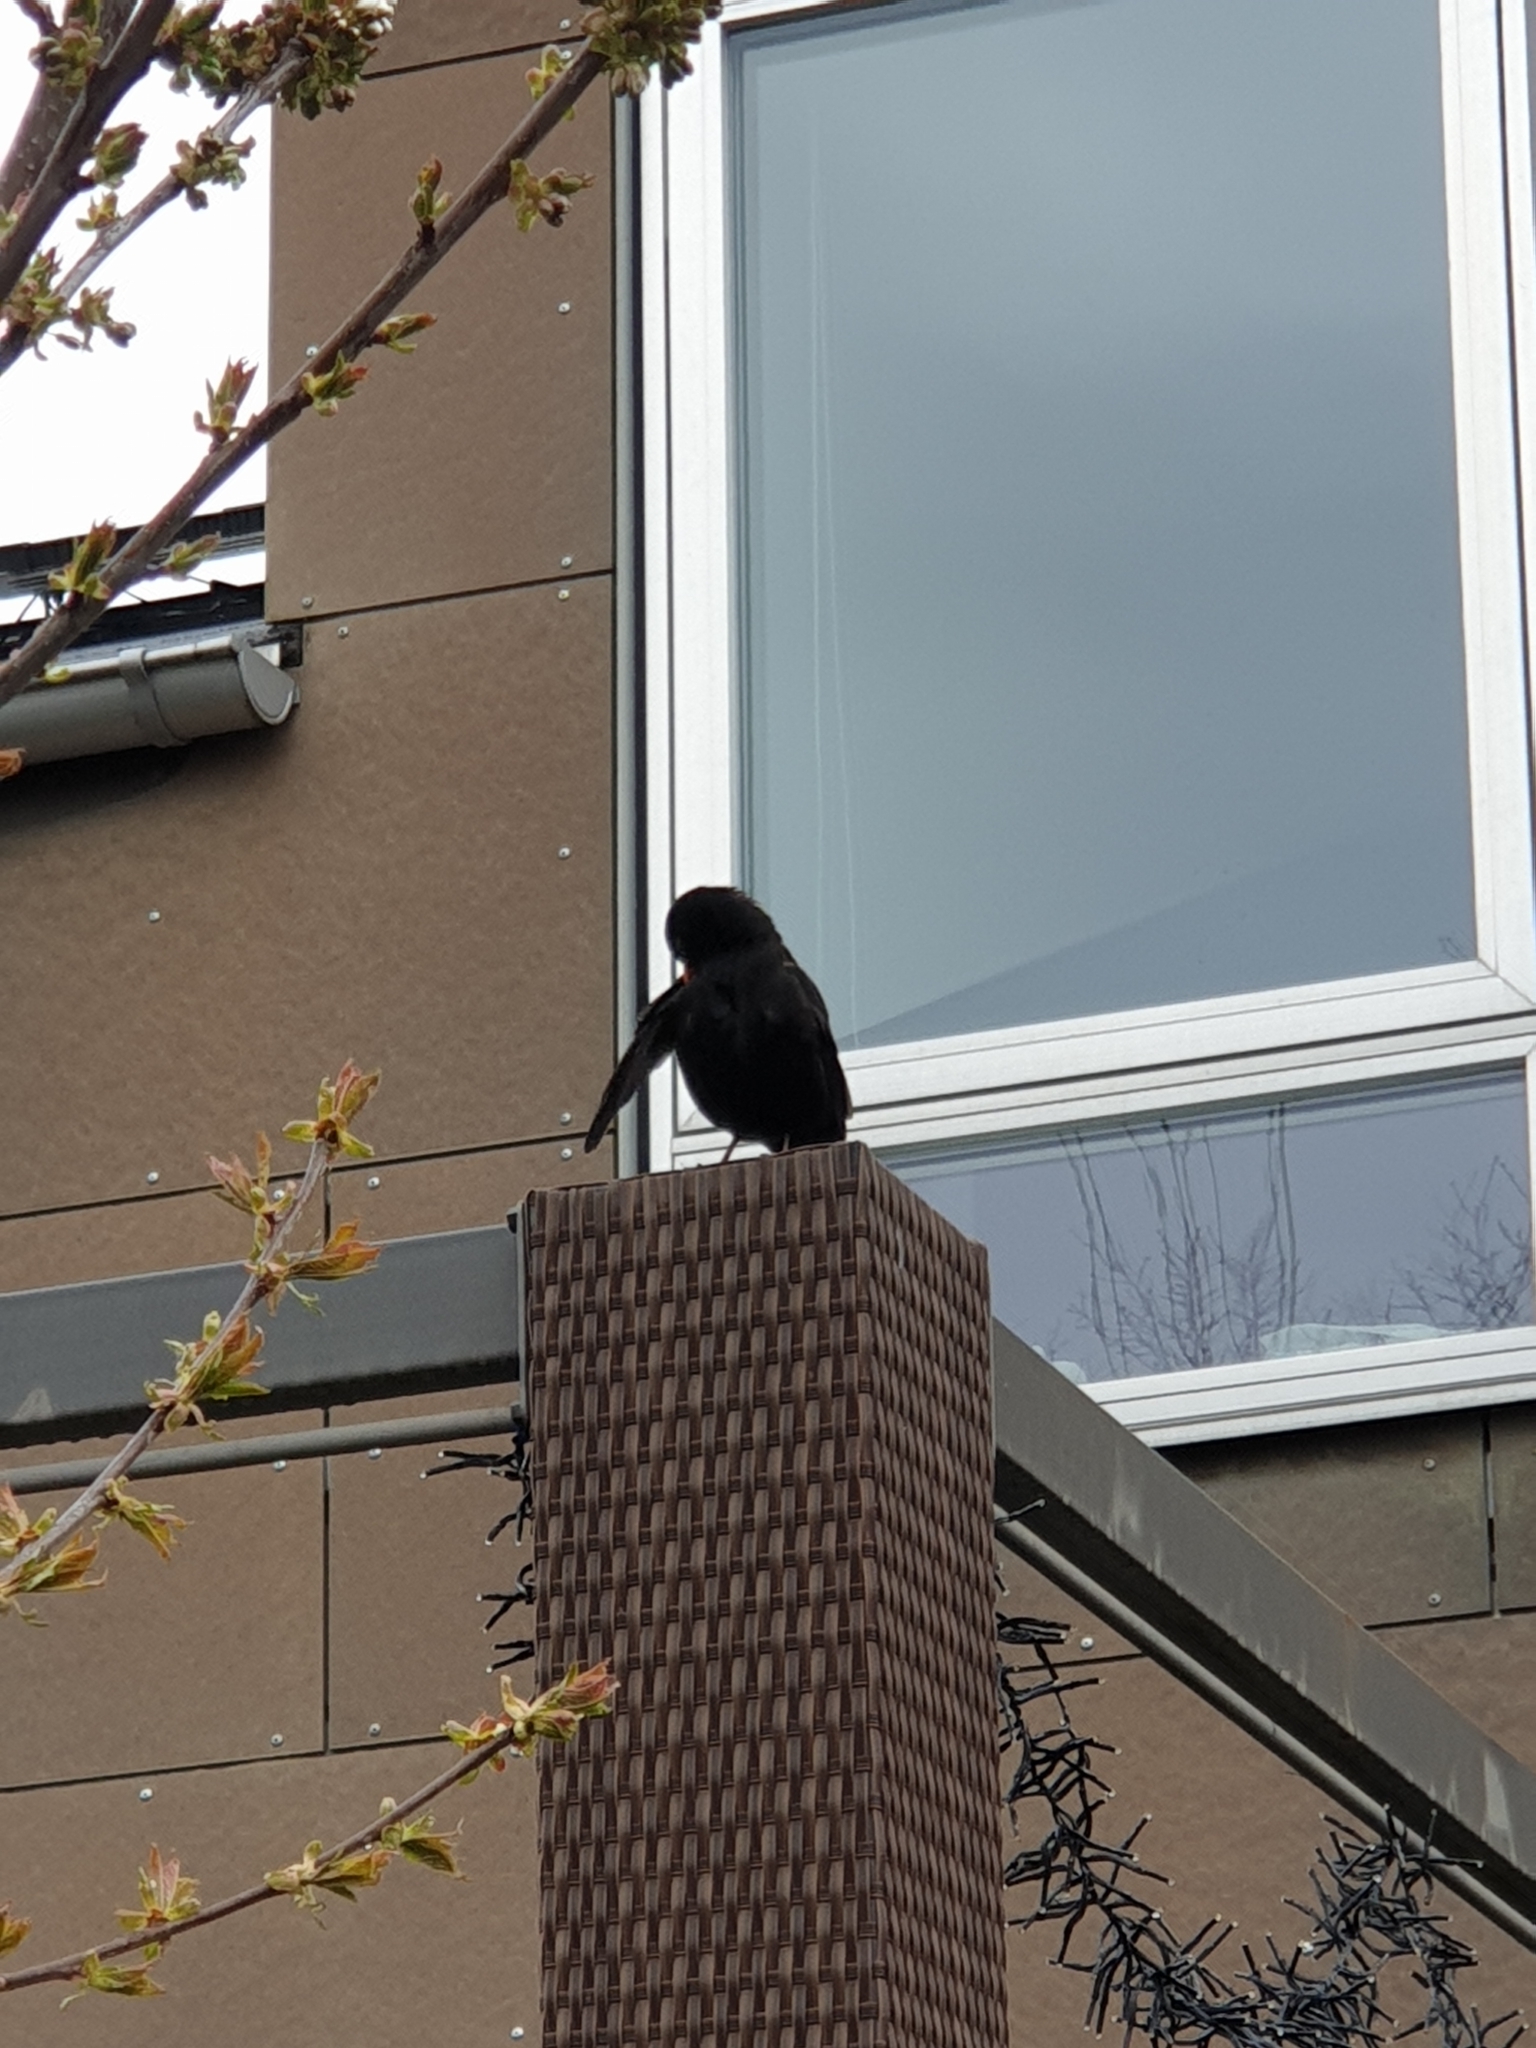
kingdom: Animalia
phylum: Chordata
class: Aves
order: Passeriformes
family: Turdidae
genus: Turdus
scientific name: Turdus merula
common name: Common blackbird
